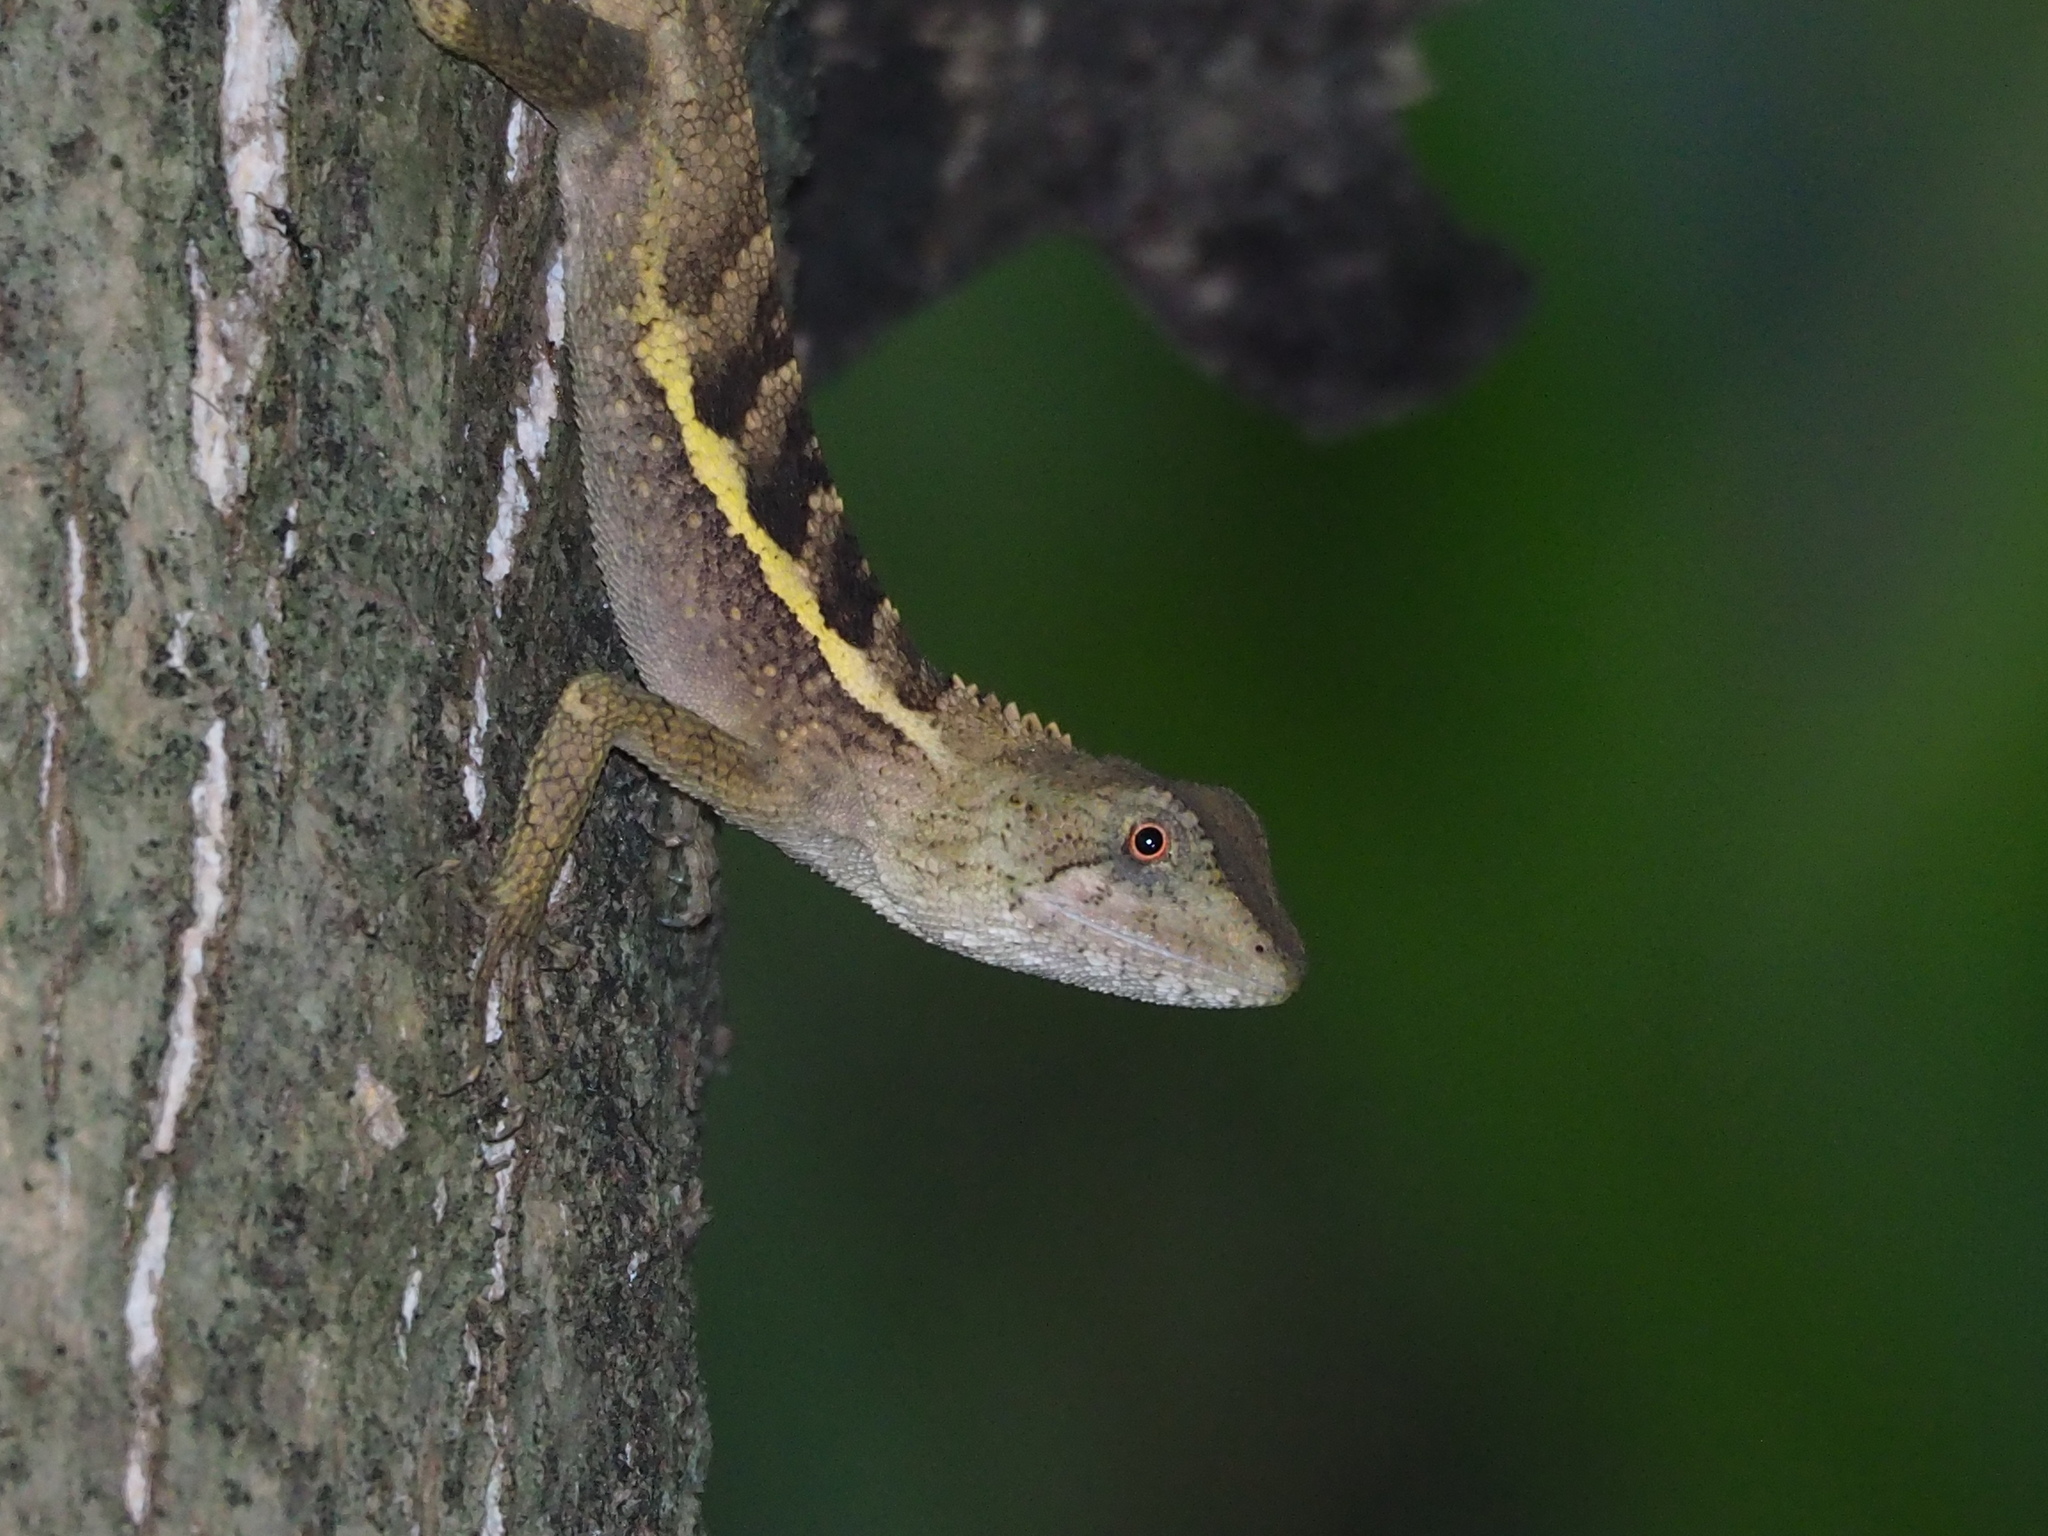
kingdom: Animalia
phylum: Chordata
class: Squamata
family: Agamidae
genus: Diploderma
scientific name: Diploderma swinhonis
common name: Taiwan japalure
